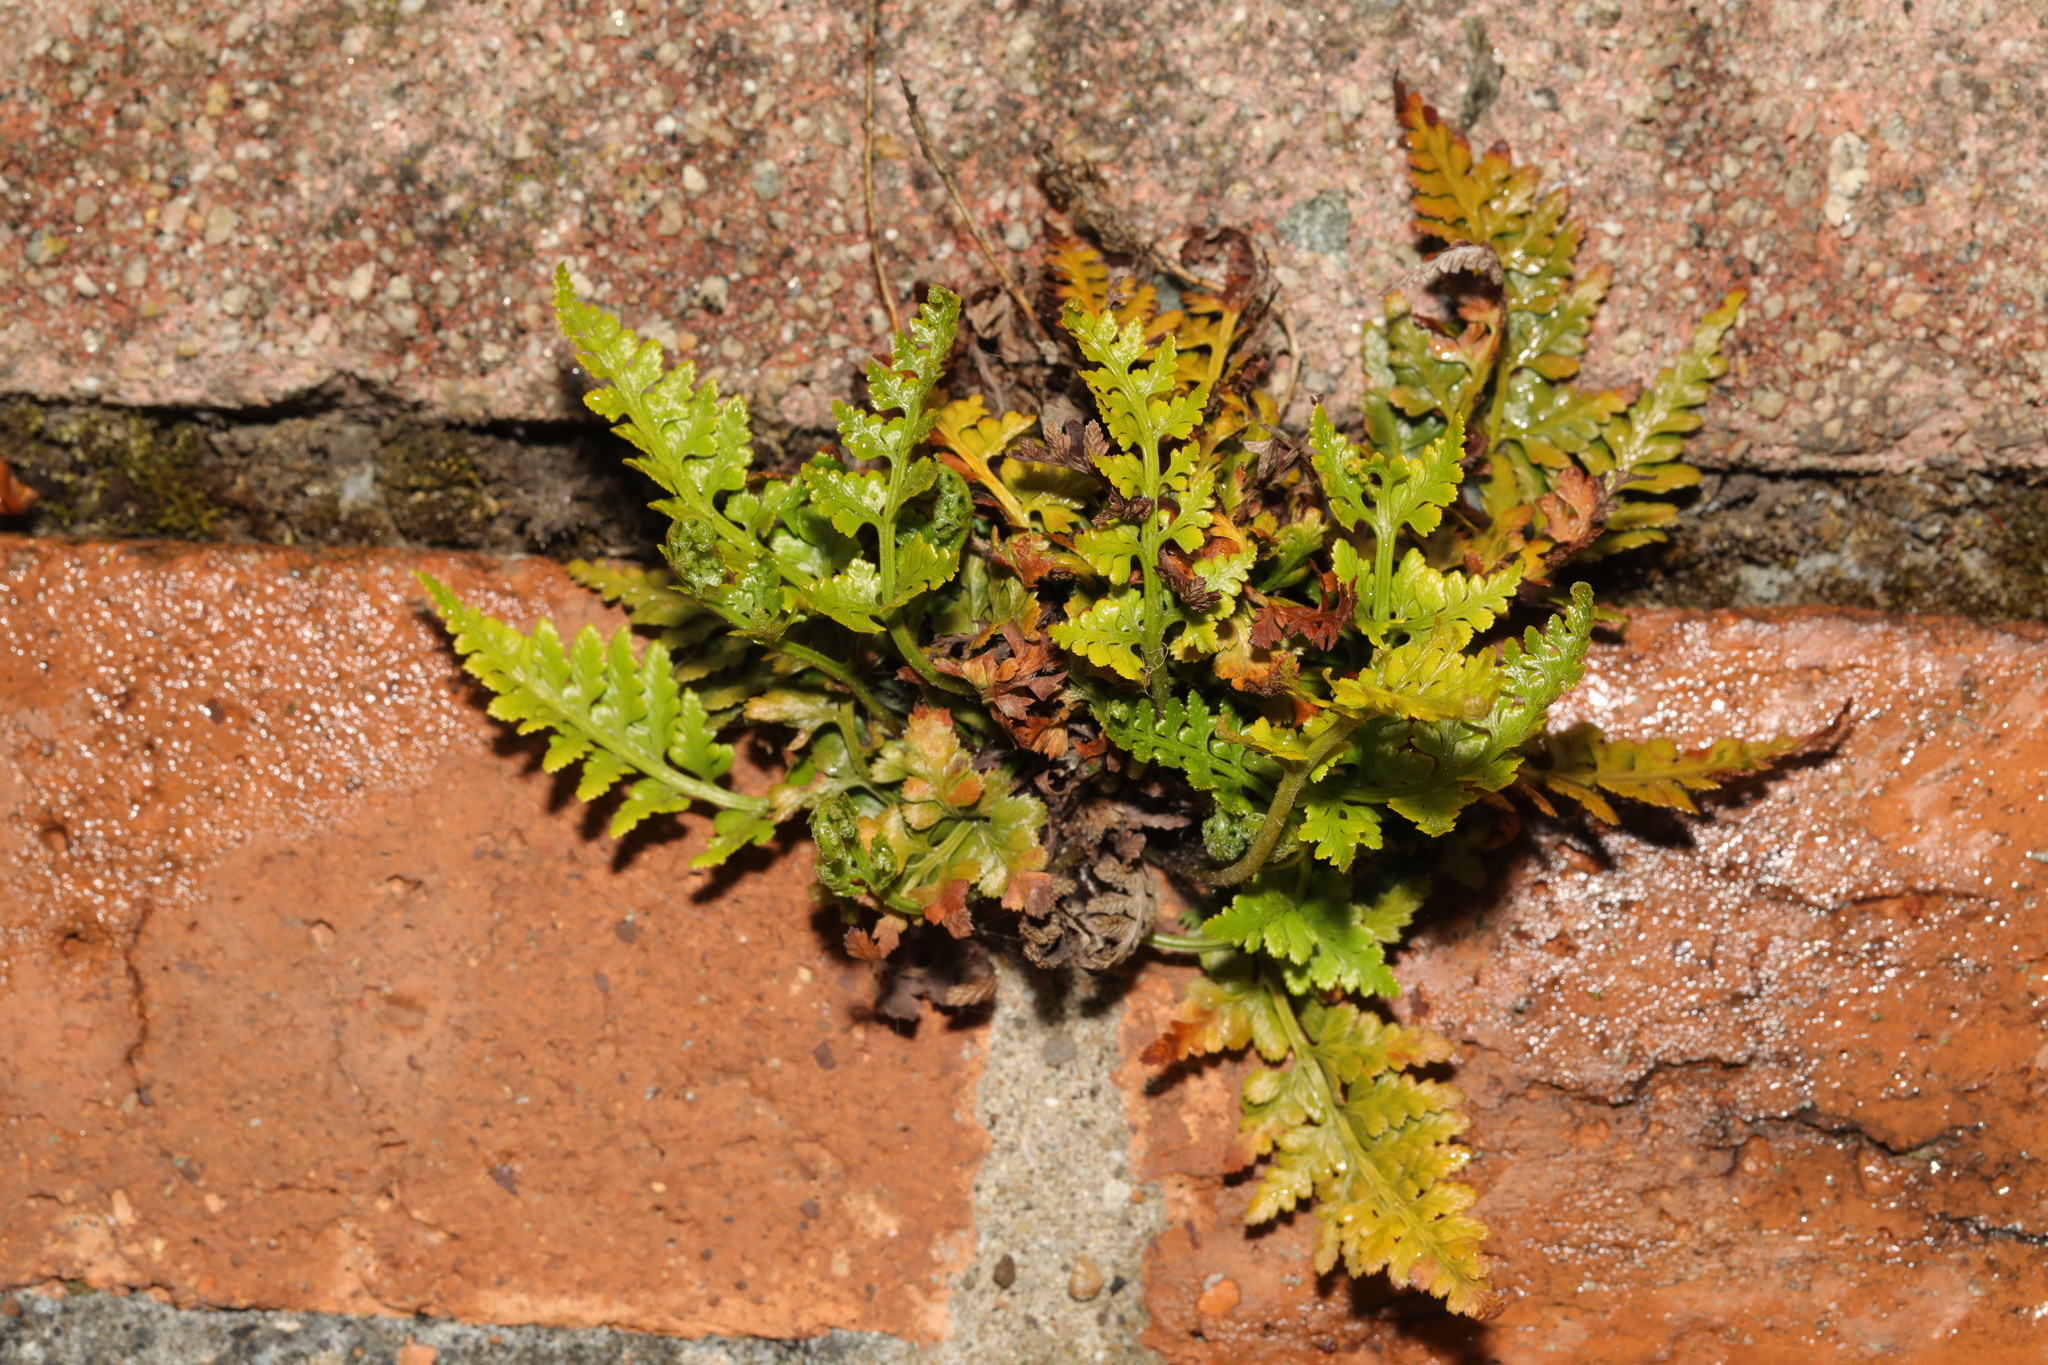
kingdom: Plantae
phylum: Tracheophyta
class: Polypodiopsida
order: Polypodiales
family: Aspleniaceae
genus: Asplenium
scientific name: Asplenium adiantum-nigrum
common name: Black spleenwort
